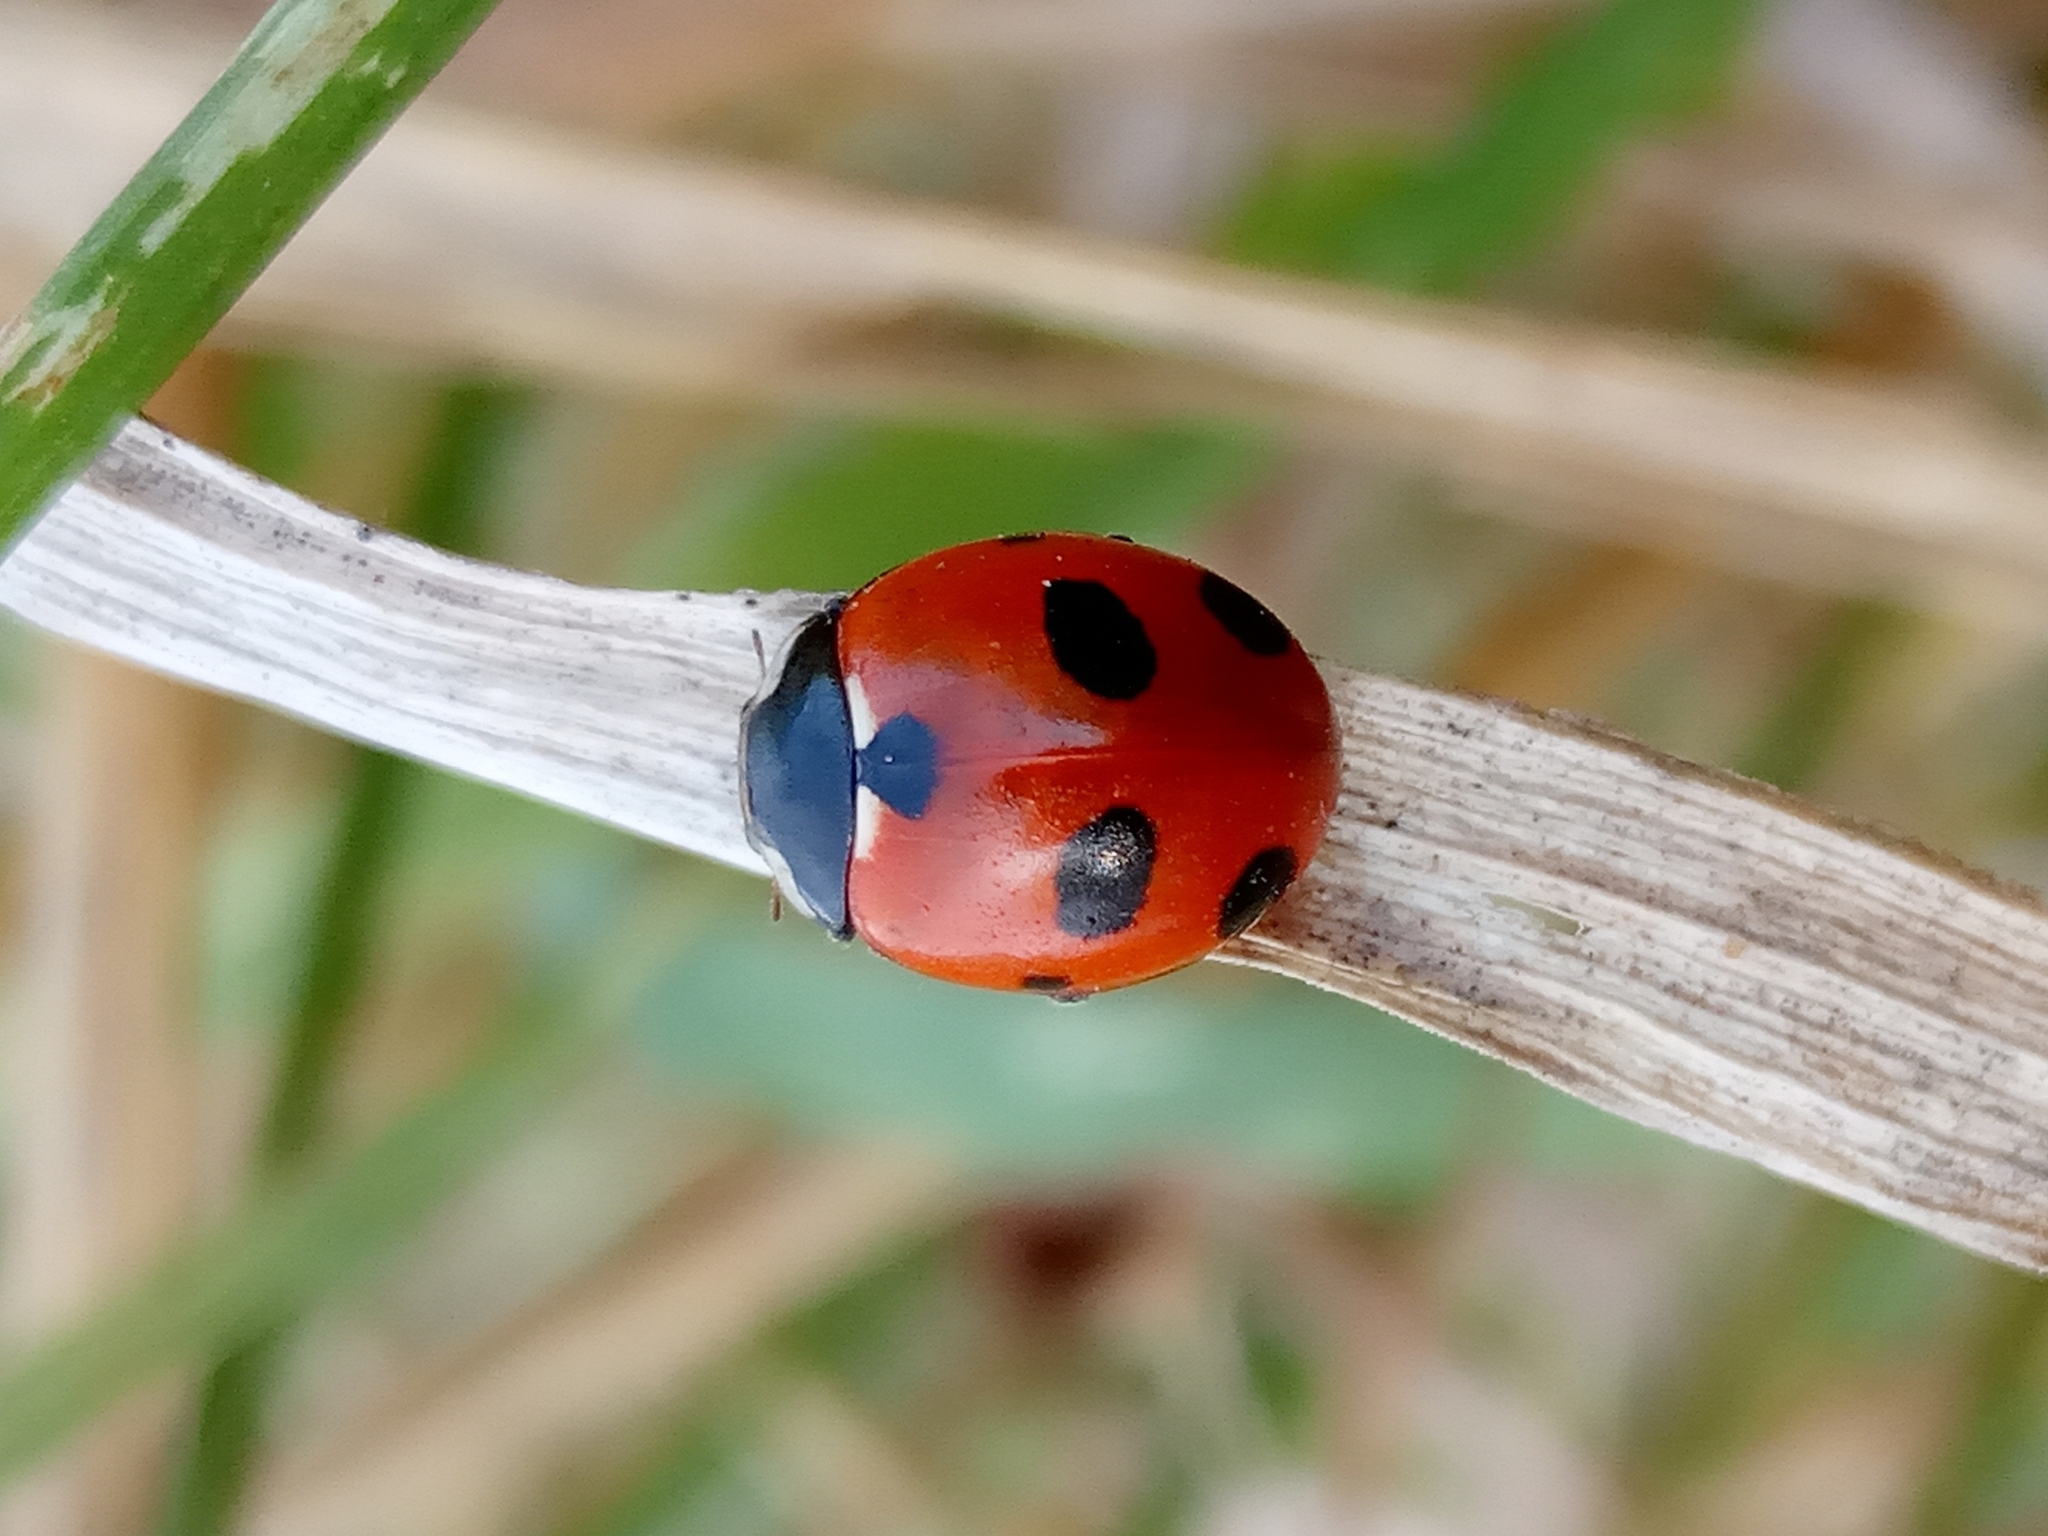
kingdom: Animalia
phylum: Arthropoda
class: Insecta
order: Coleoptera
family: Coccinellidae
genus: Coccinella
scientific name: Coccinella magnifica
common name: Scarce 7-spot ladybird
